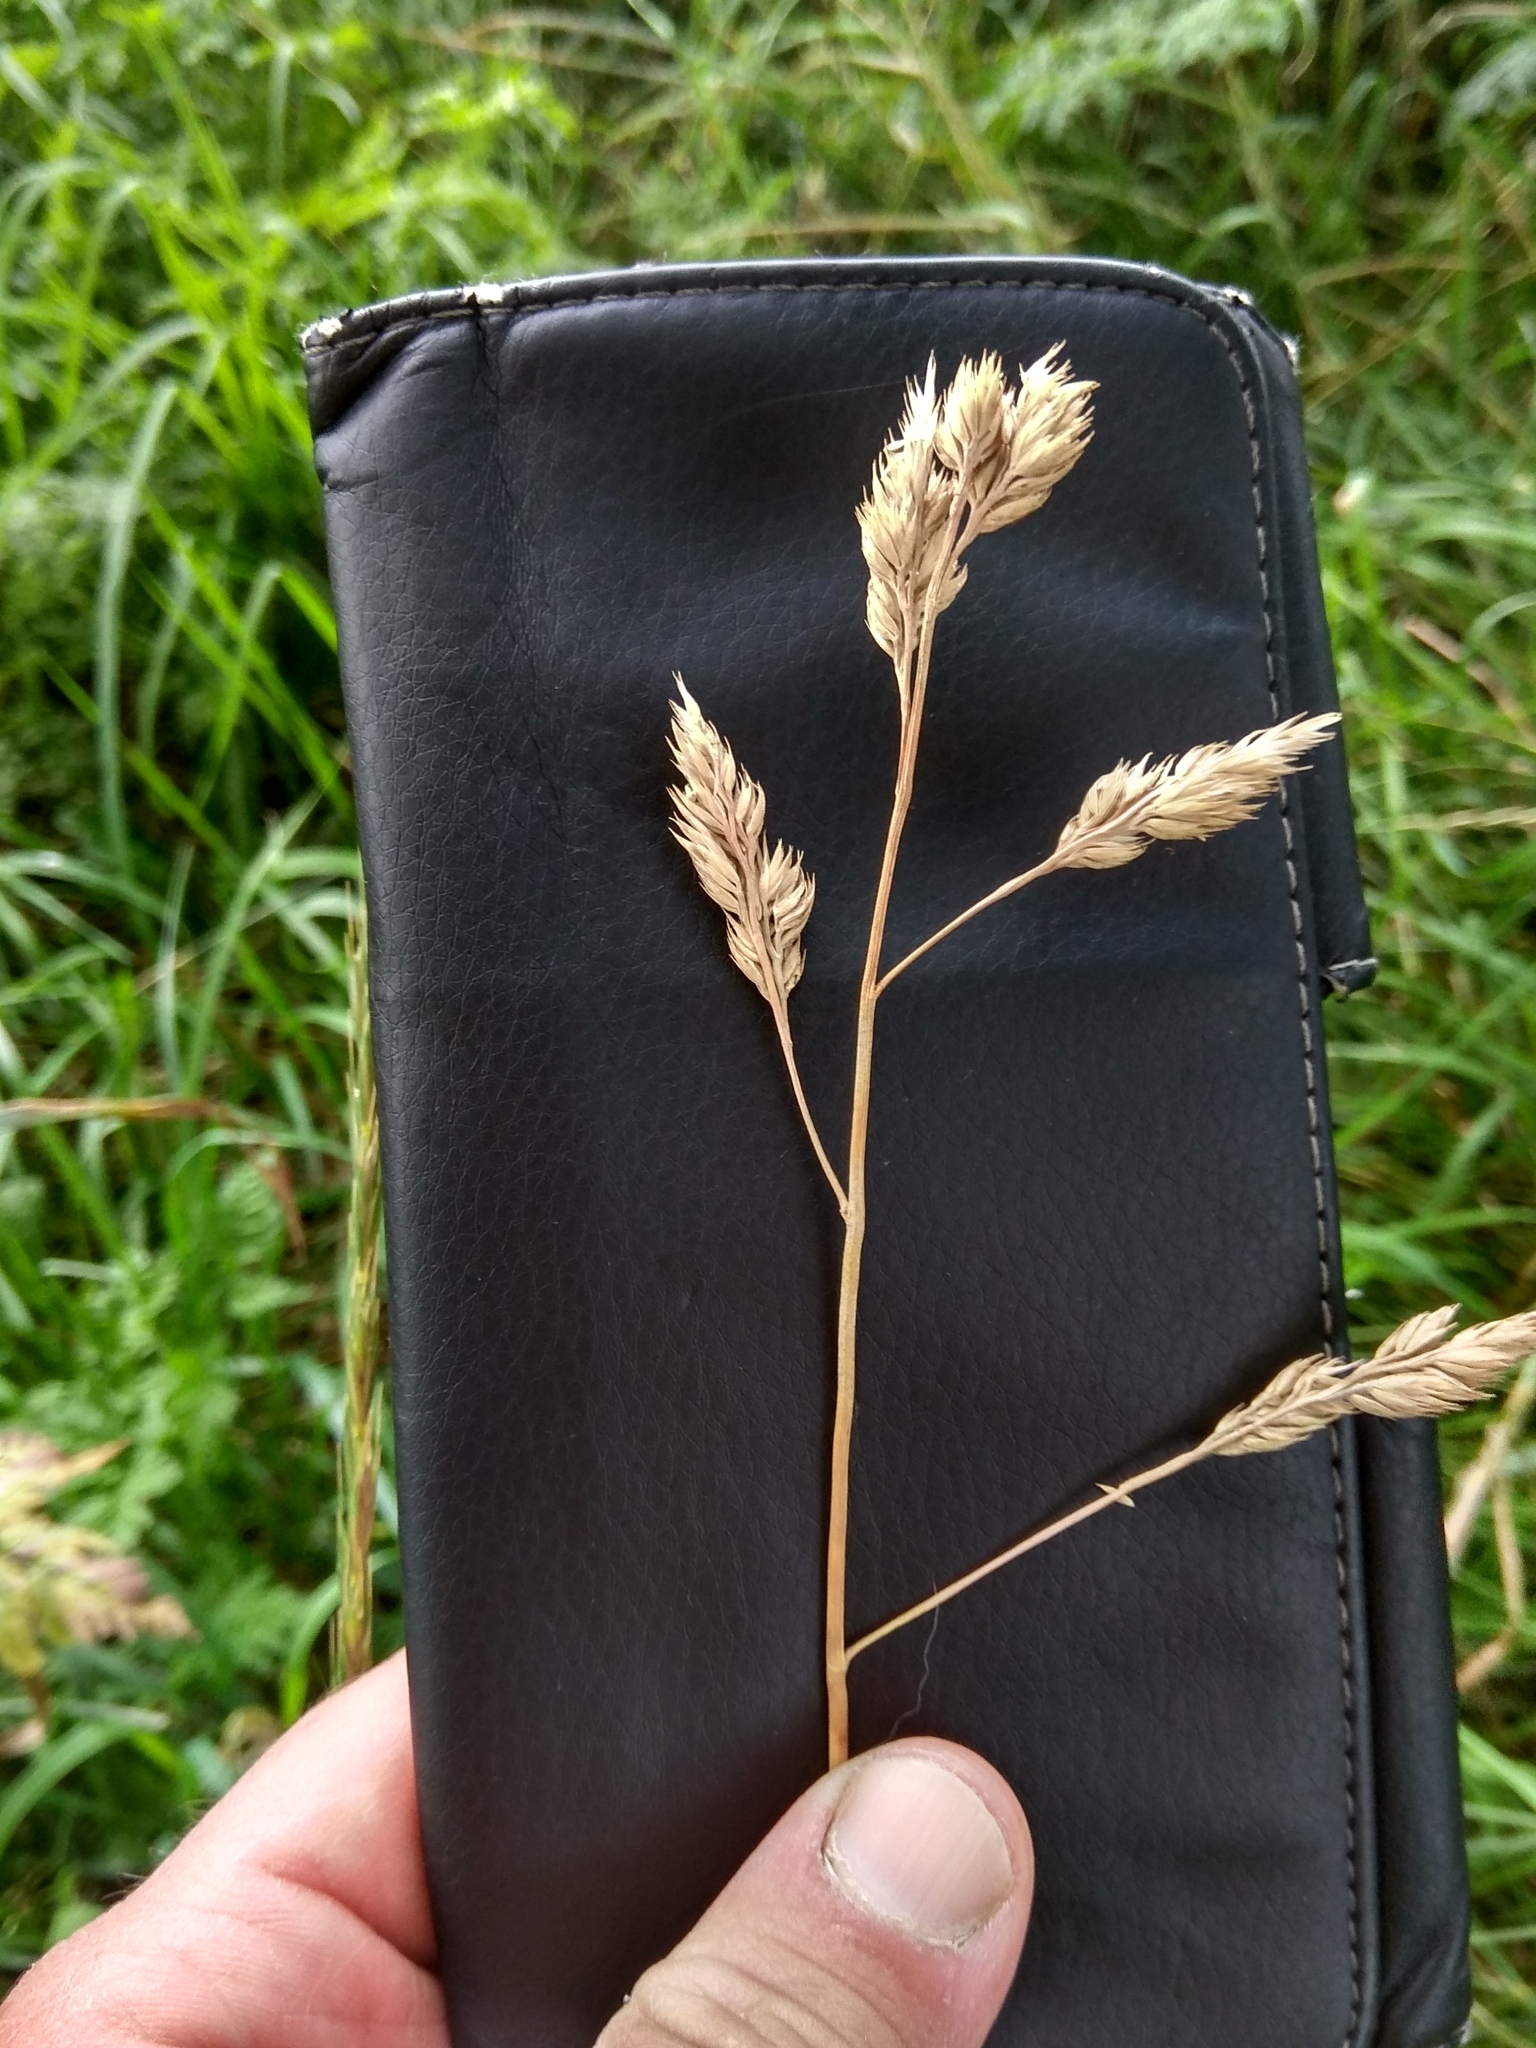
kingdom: Plantae
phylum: Tracheophyta
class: Liliopsida
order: Poales
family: Poaceae
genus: Dactylis
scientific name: Dactylis glomerata
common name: Orchardgrass
